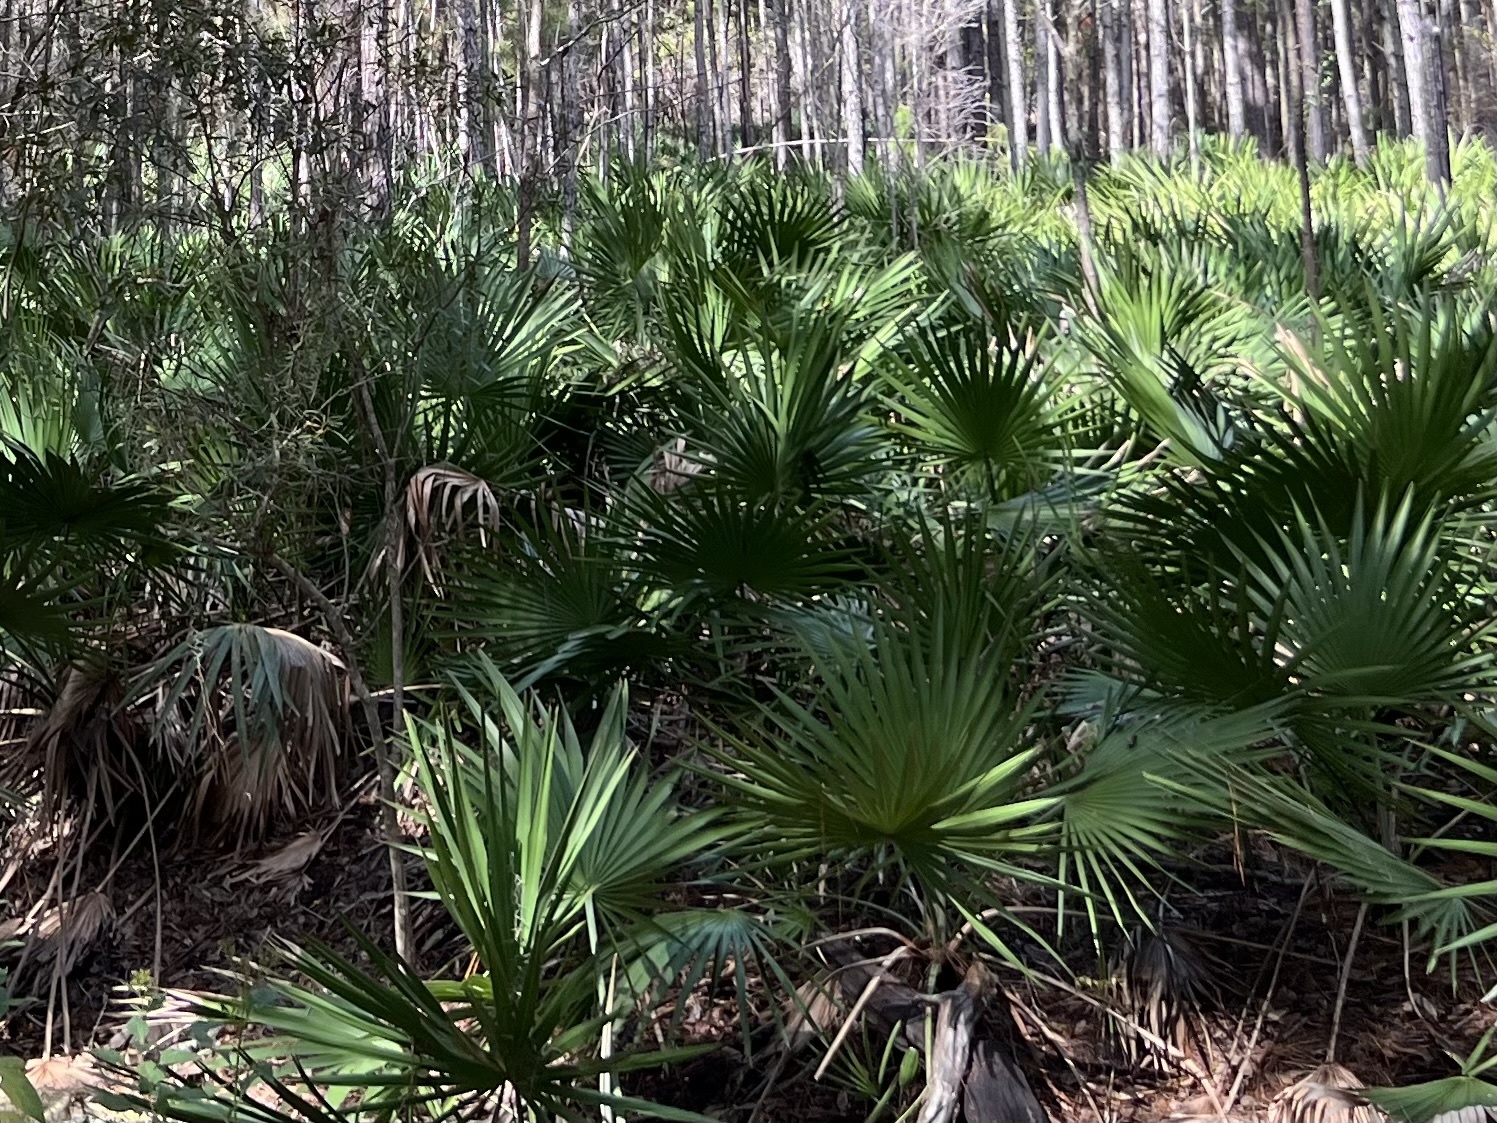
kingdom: Plantae
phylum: Tracheophyta
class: Liliopsida
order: Arecales
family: Arecaceae
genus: Serenoa
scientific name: Serenoa repens
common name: Saw-palmetto
